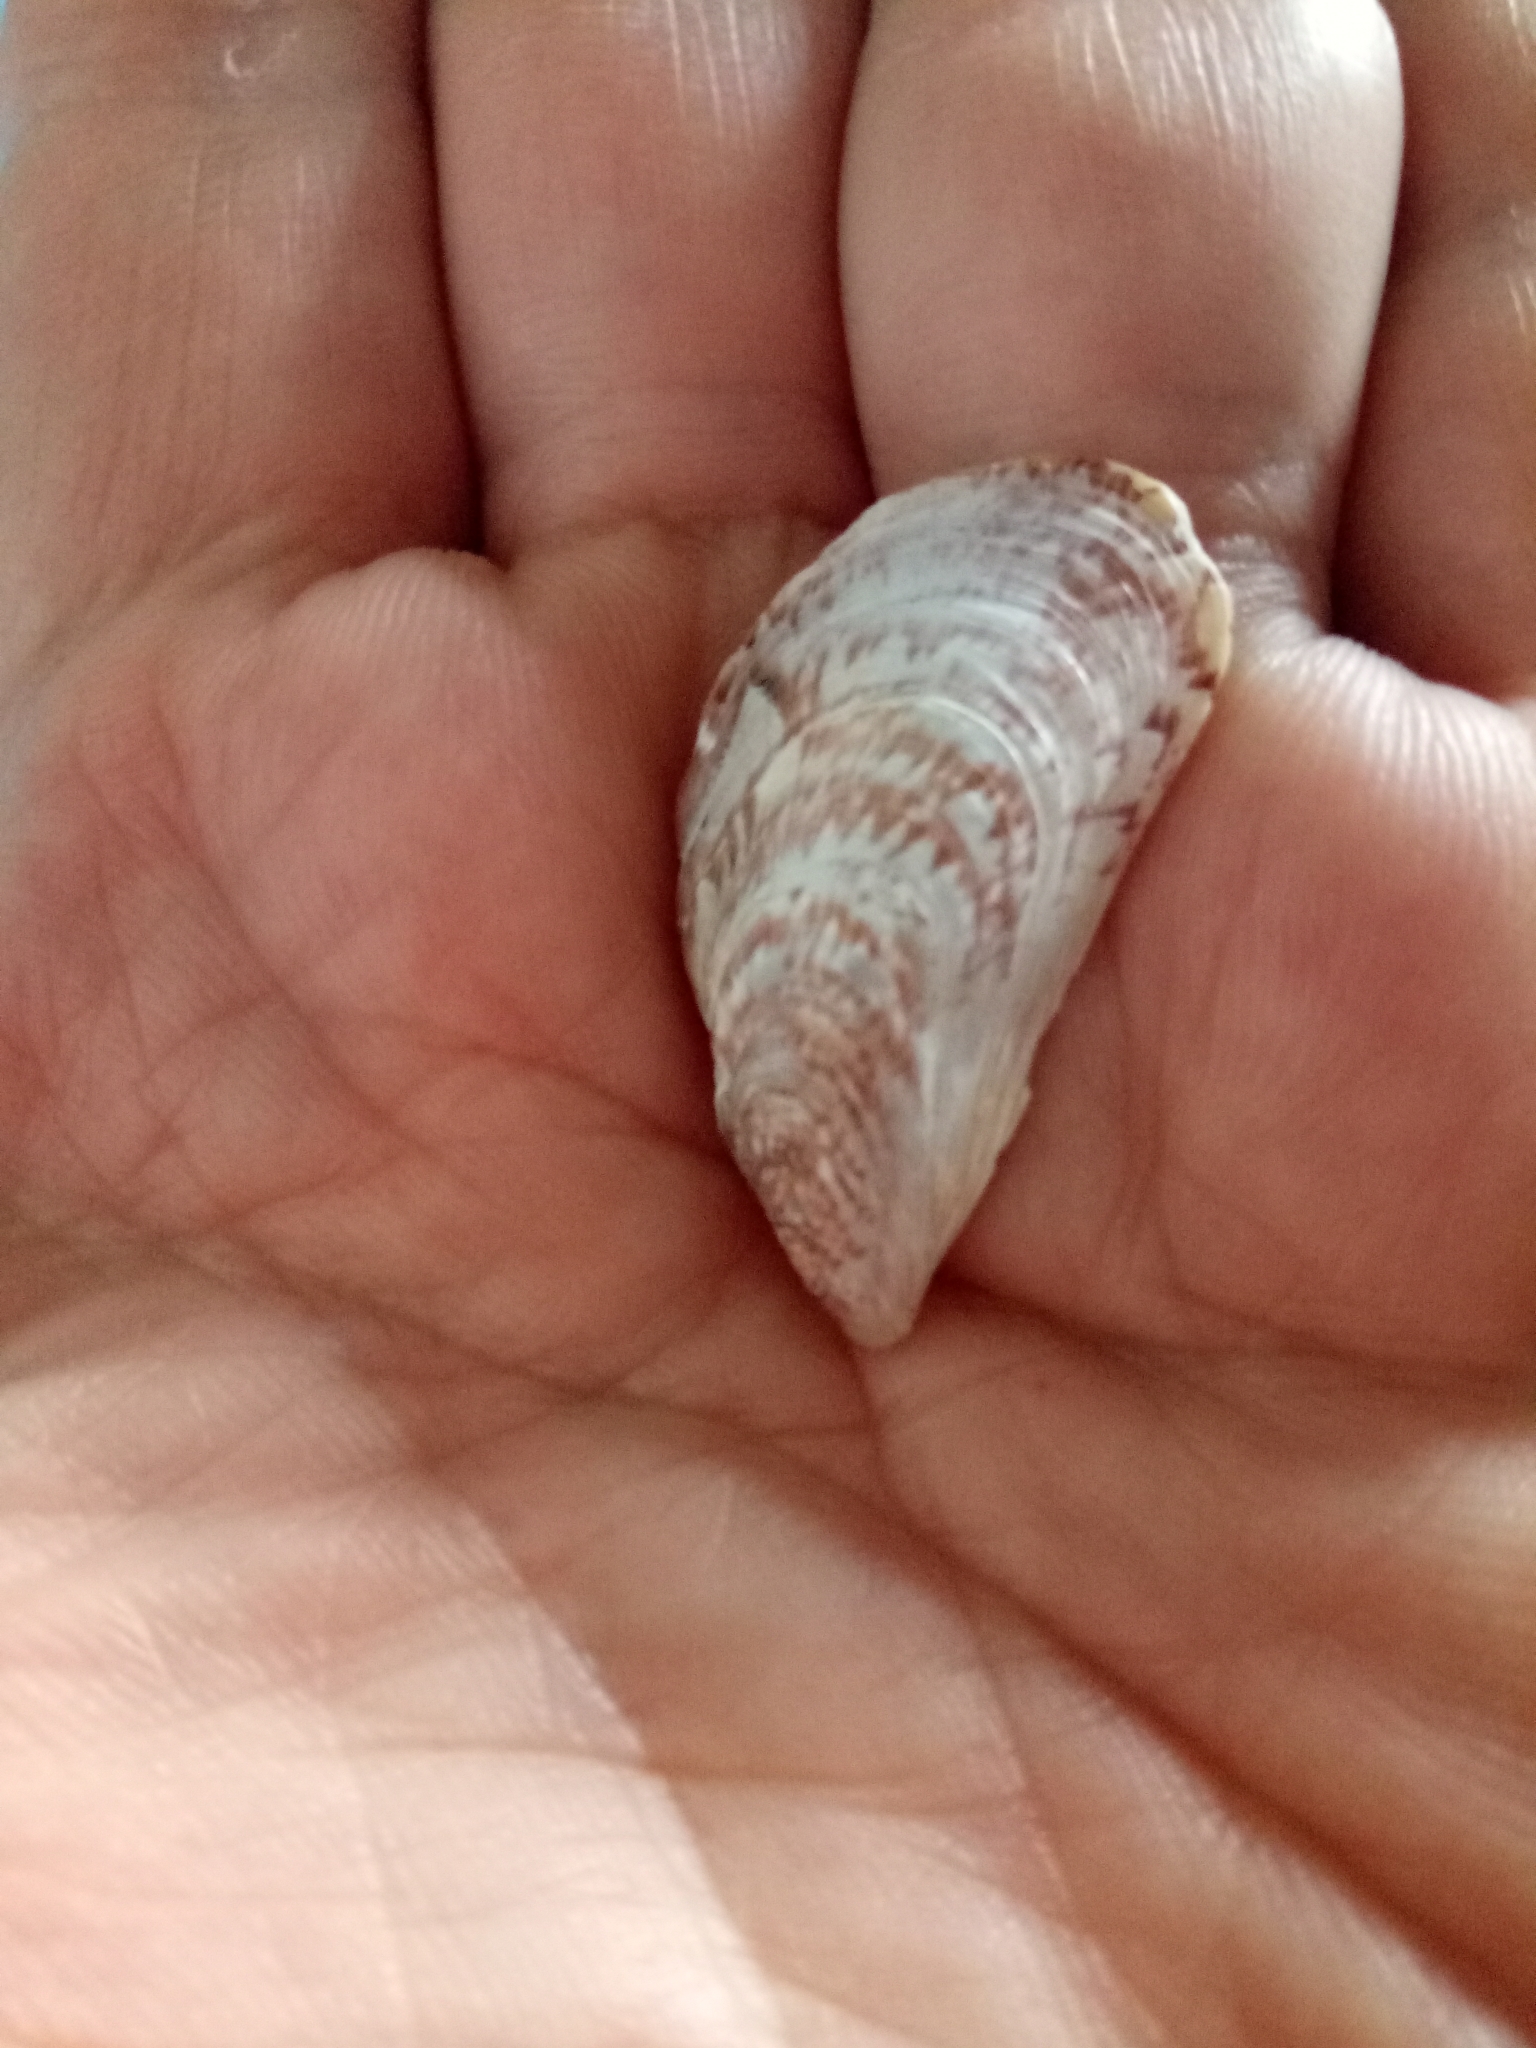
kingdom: Animalia
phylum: Mollusca
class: Bivalvia
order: Mytilida
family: Mytilidae
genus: Perna
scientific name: Perna perna
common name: Mexilhao mussel
